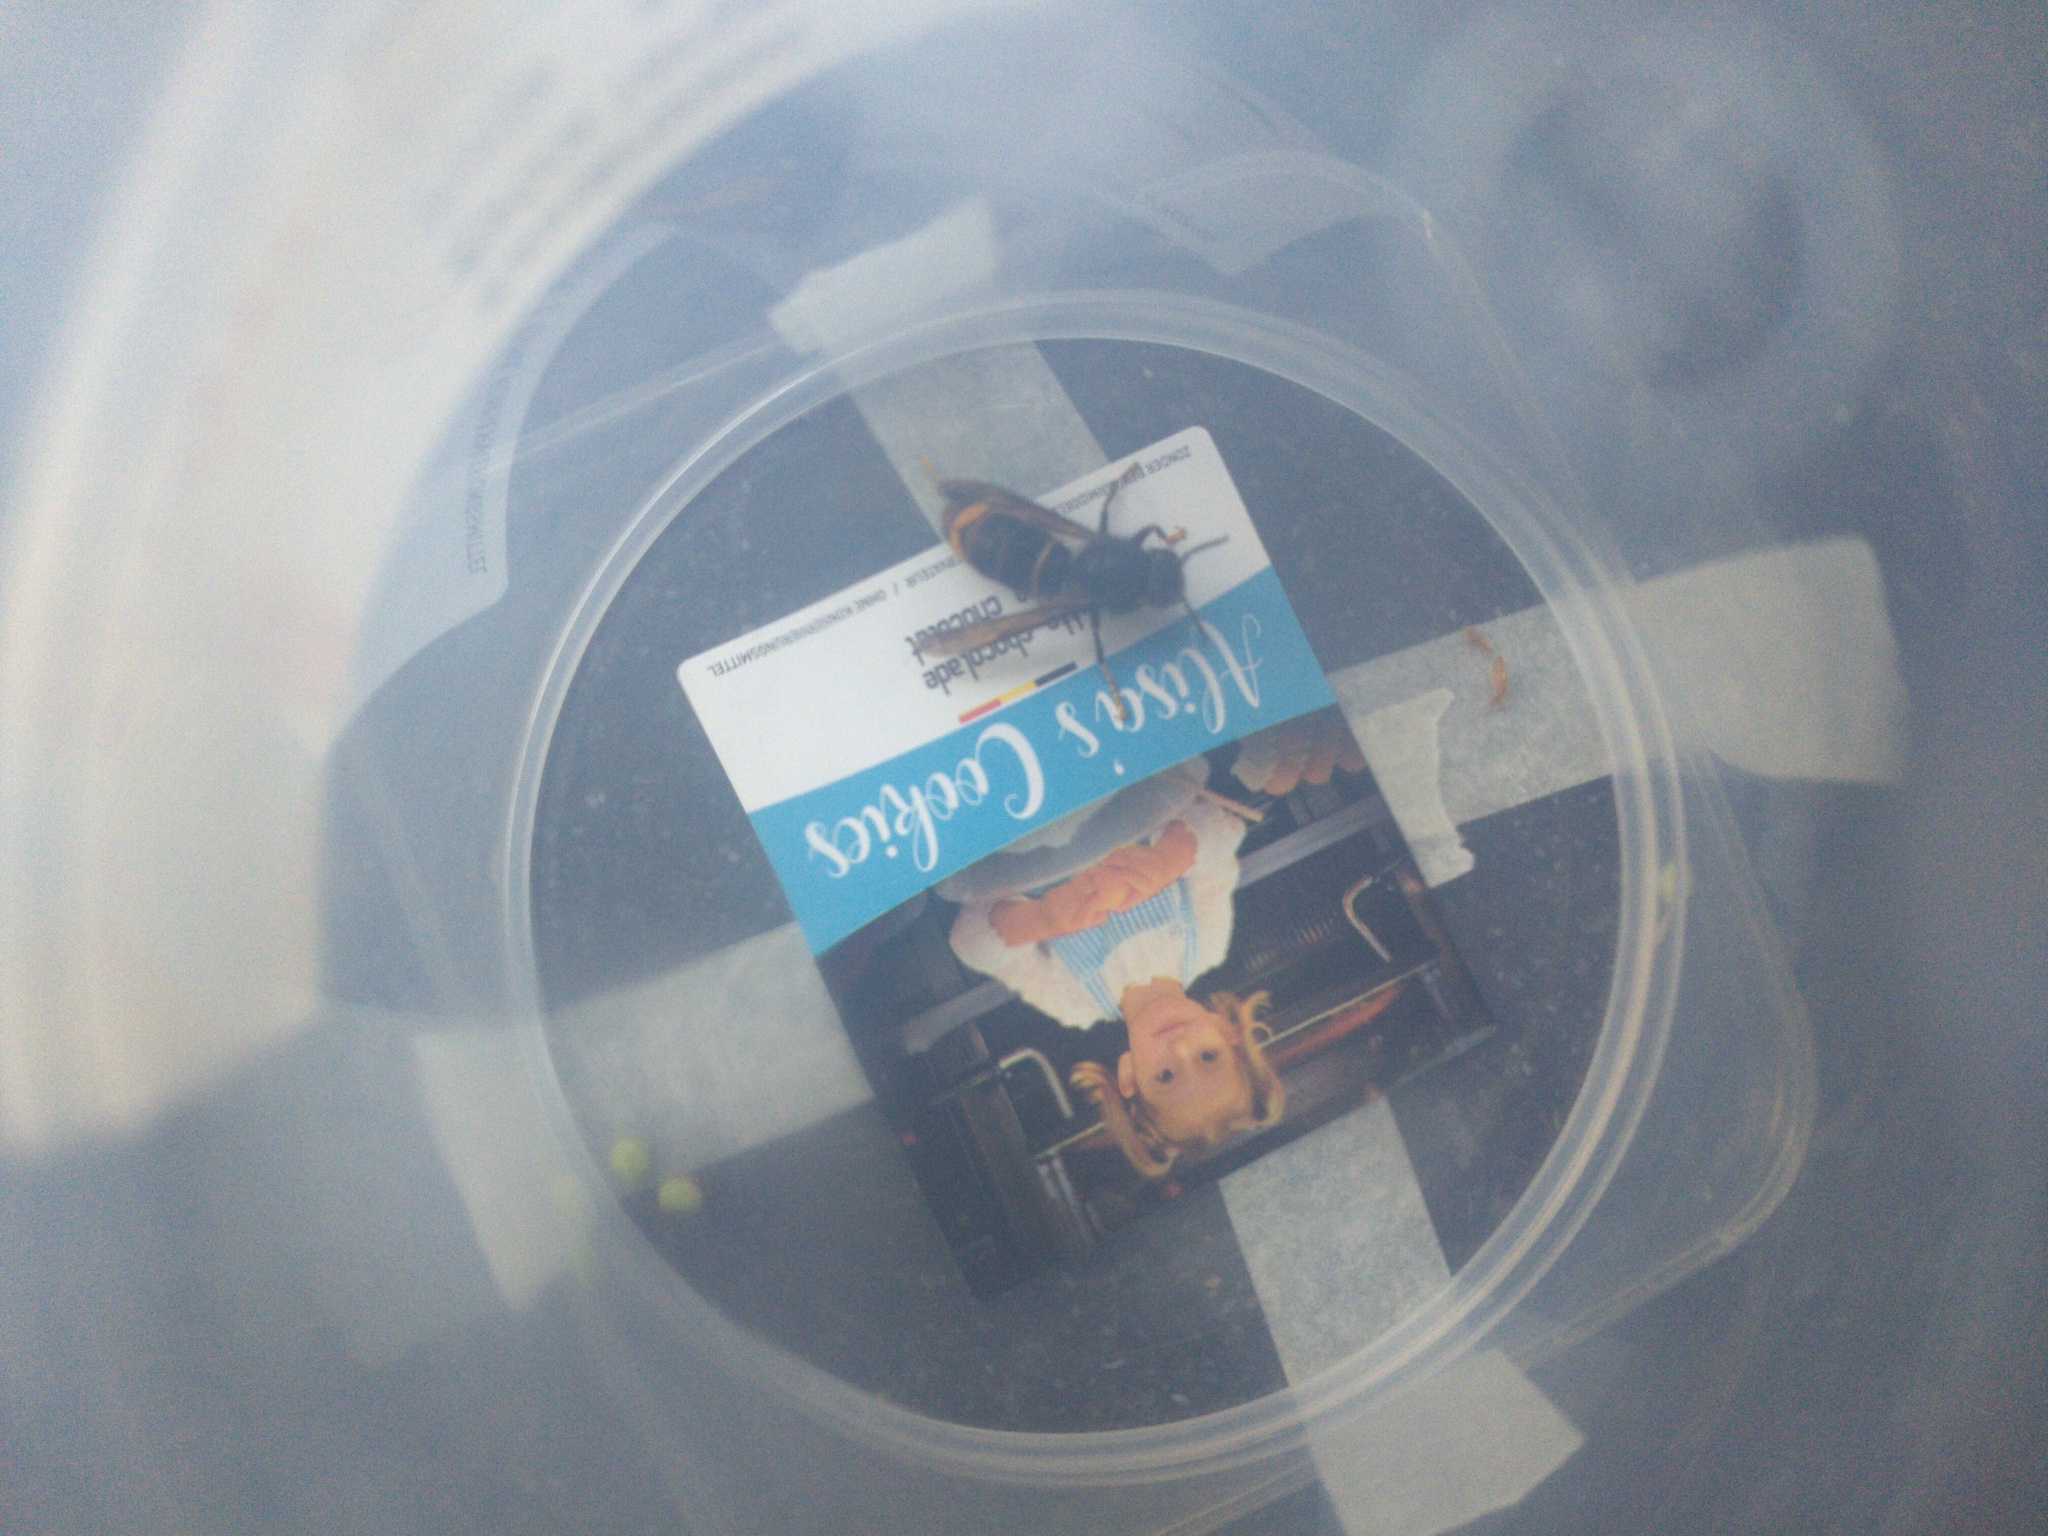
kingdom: Animalia
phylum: Arthropoda
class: Insecta
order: Hymenoptera
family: Vespidae
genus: Vespa
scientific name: Vespa velutina
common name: Asian hornet
